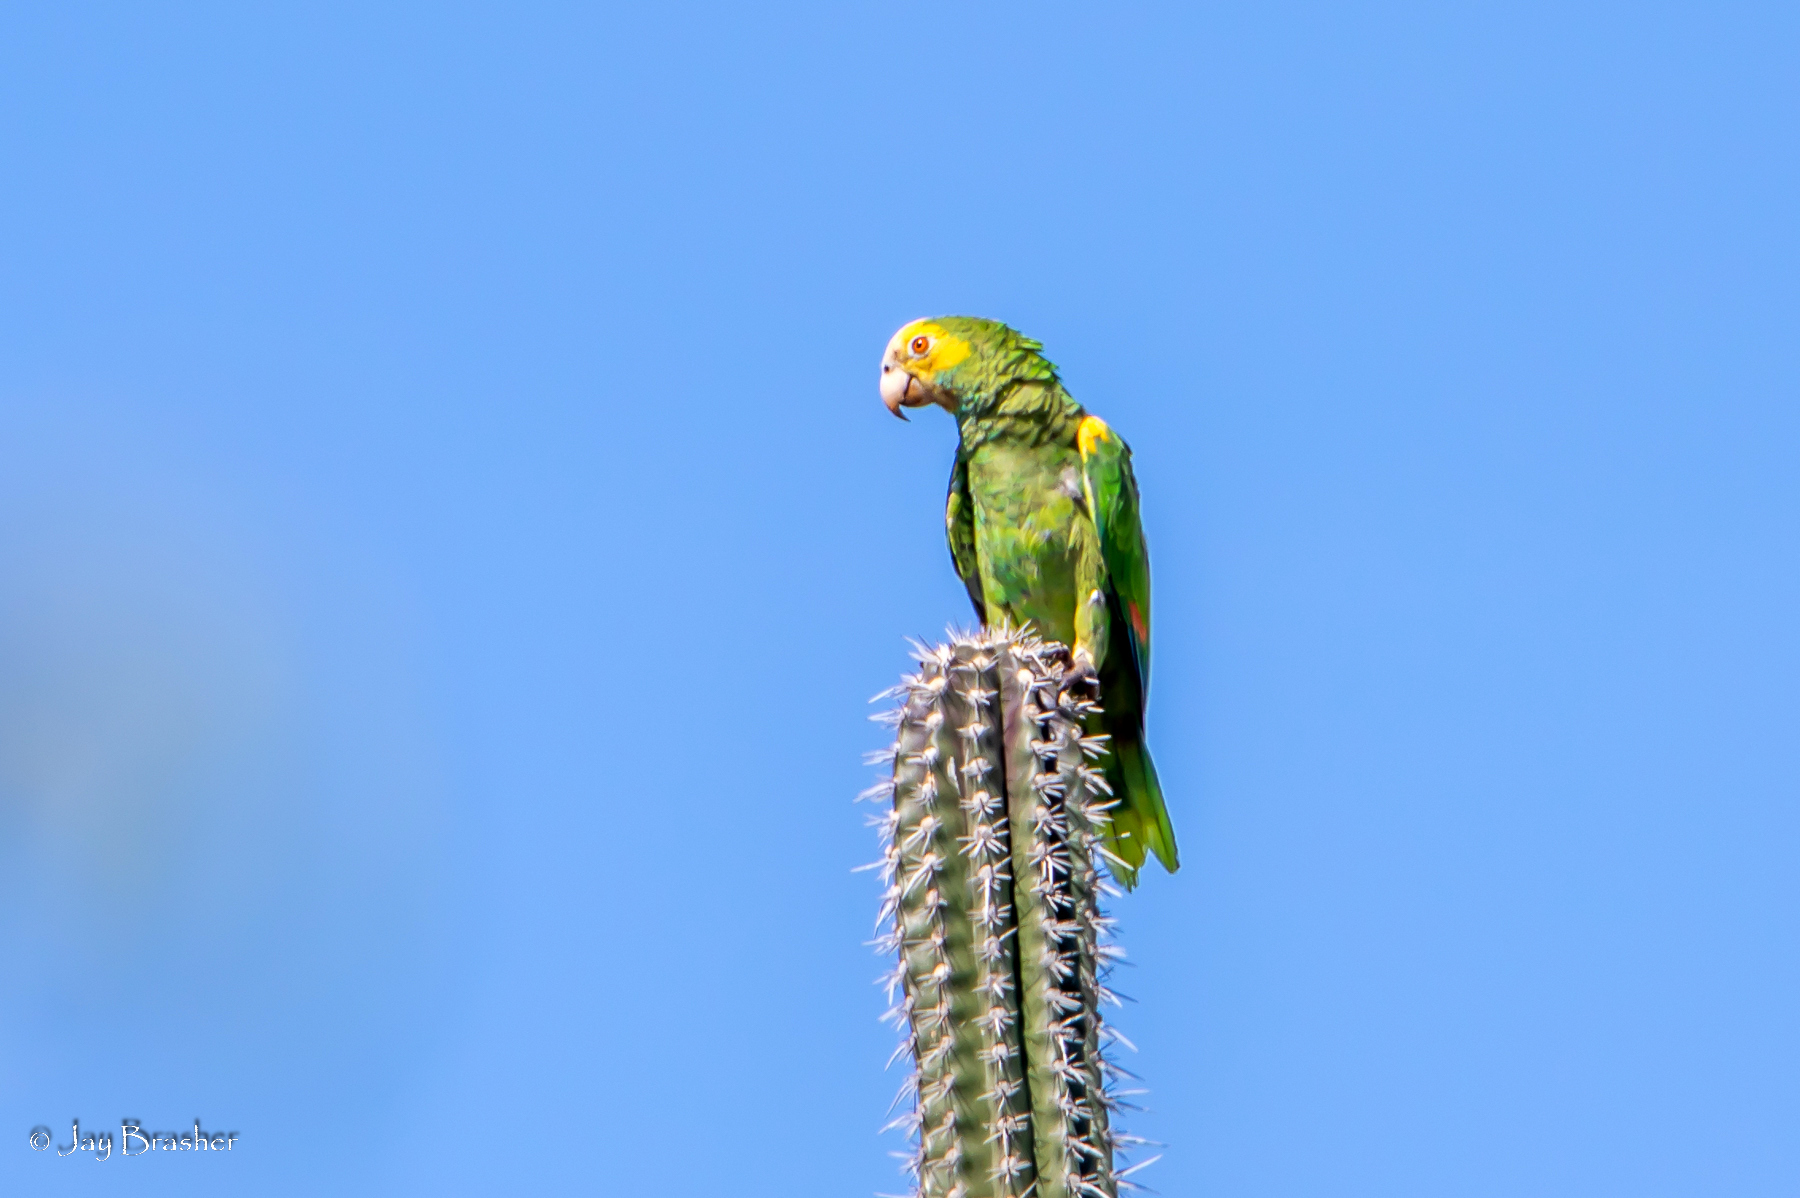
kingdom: Animalia
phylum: Chordata
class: Aves
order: Psittaciformes
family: Psittacidae
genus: Amazona
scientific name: Amazona barbadensis
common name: Yellow-shouldered amazon
